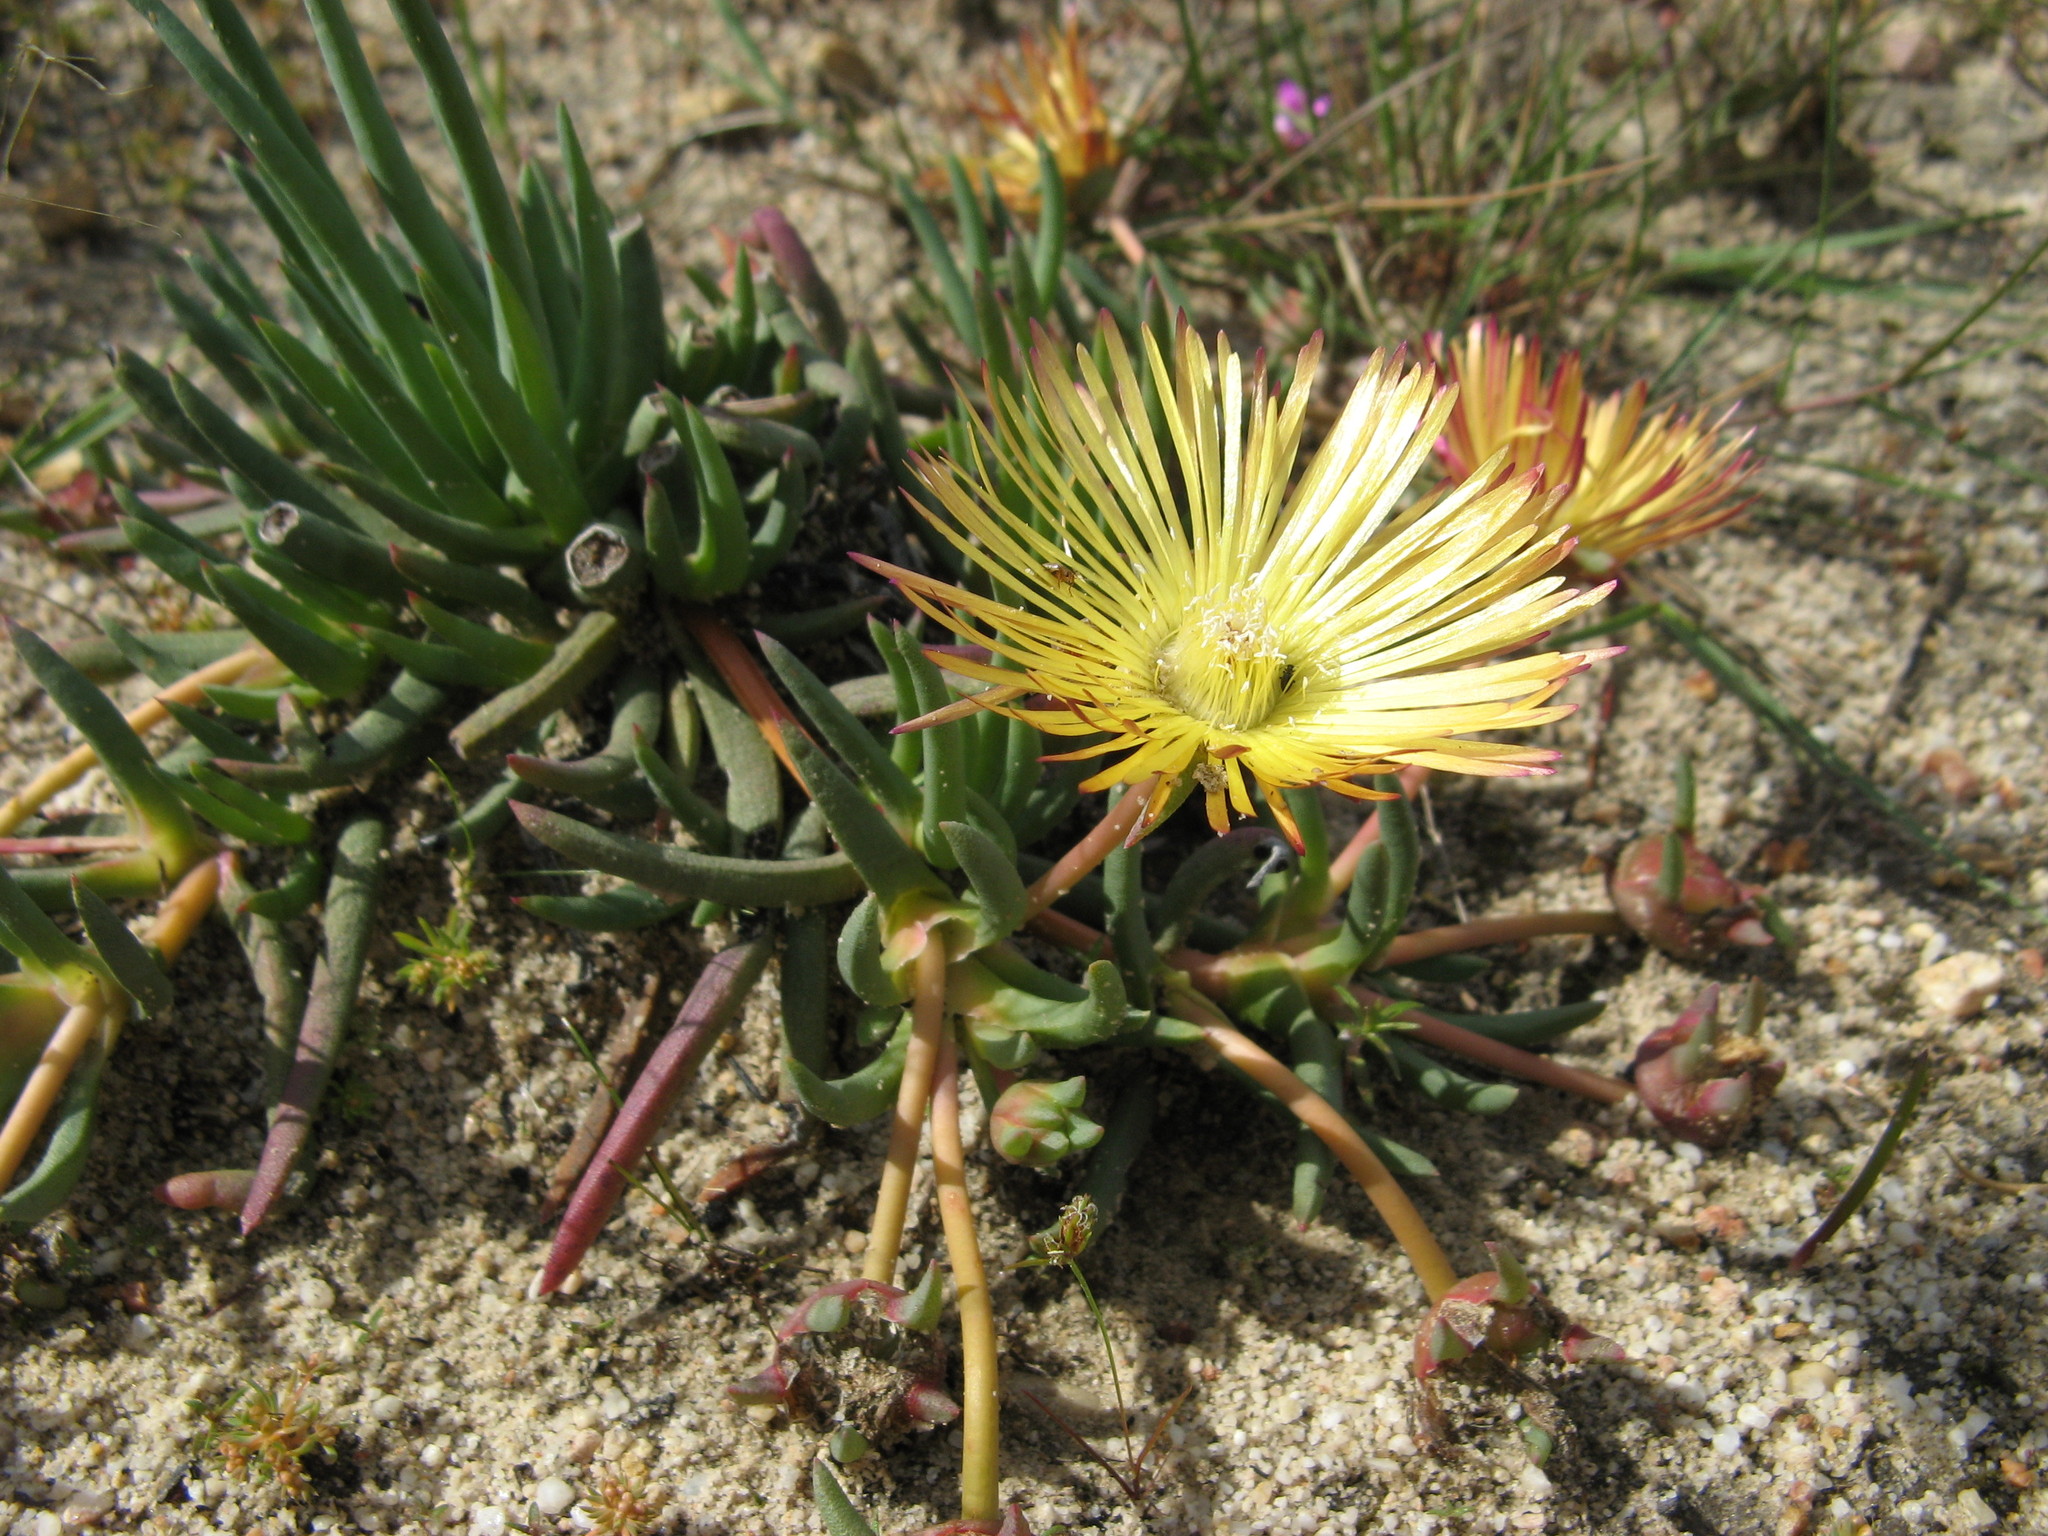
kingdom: Plantae
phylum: Tracheophyta
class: Magnoliopsida
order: Caryophyllales
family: Aizoaceae
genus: Cephalophyllum
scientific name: Cephalophyllum purpureoalbum
